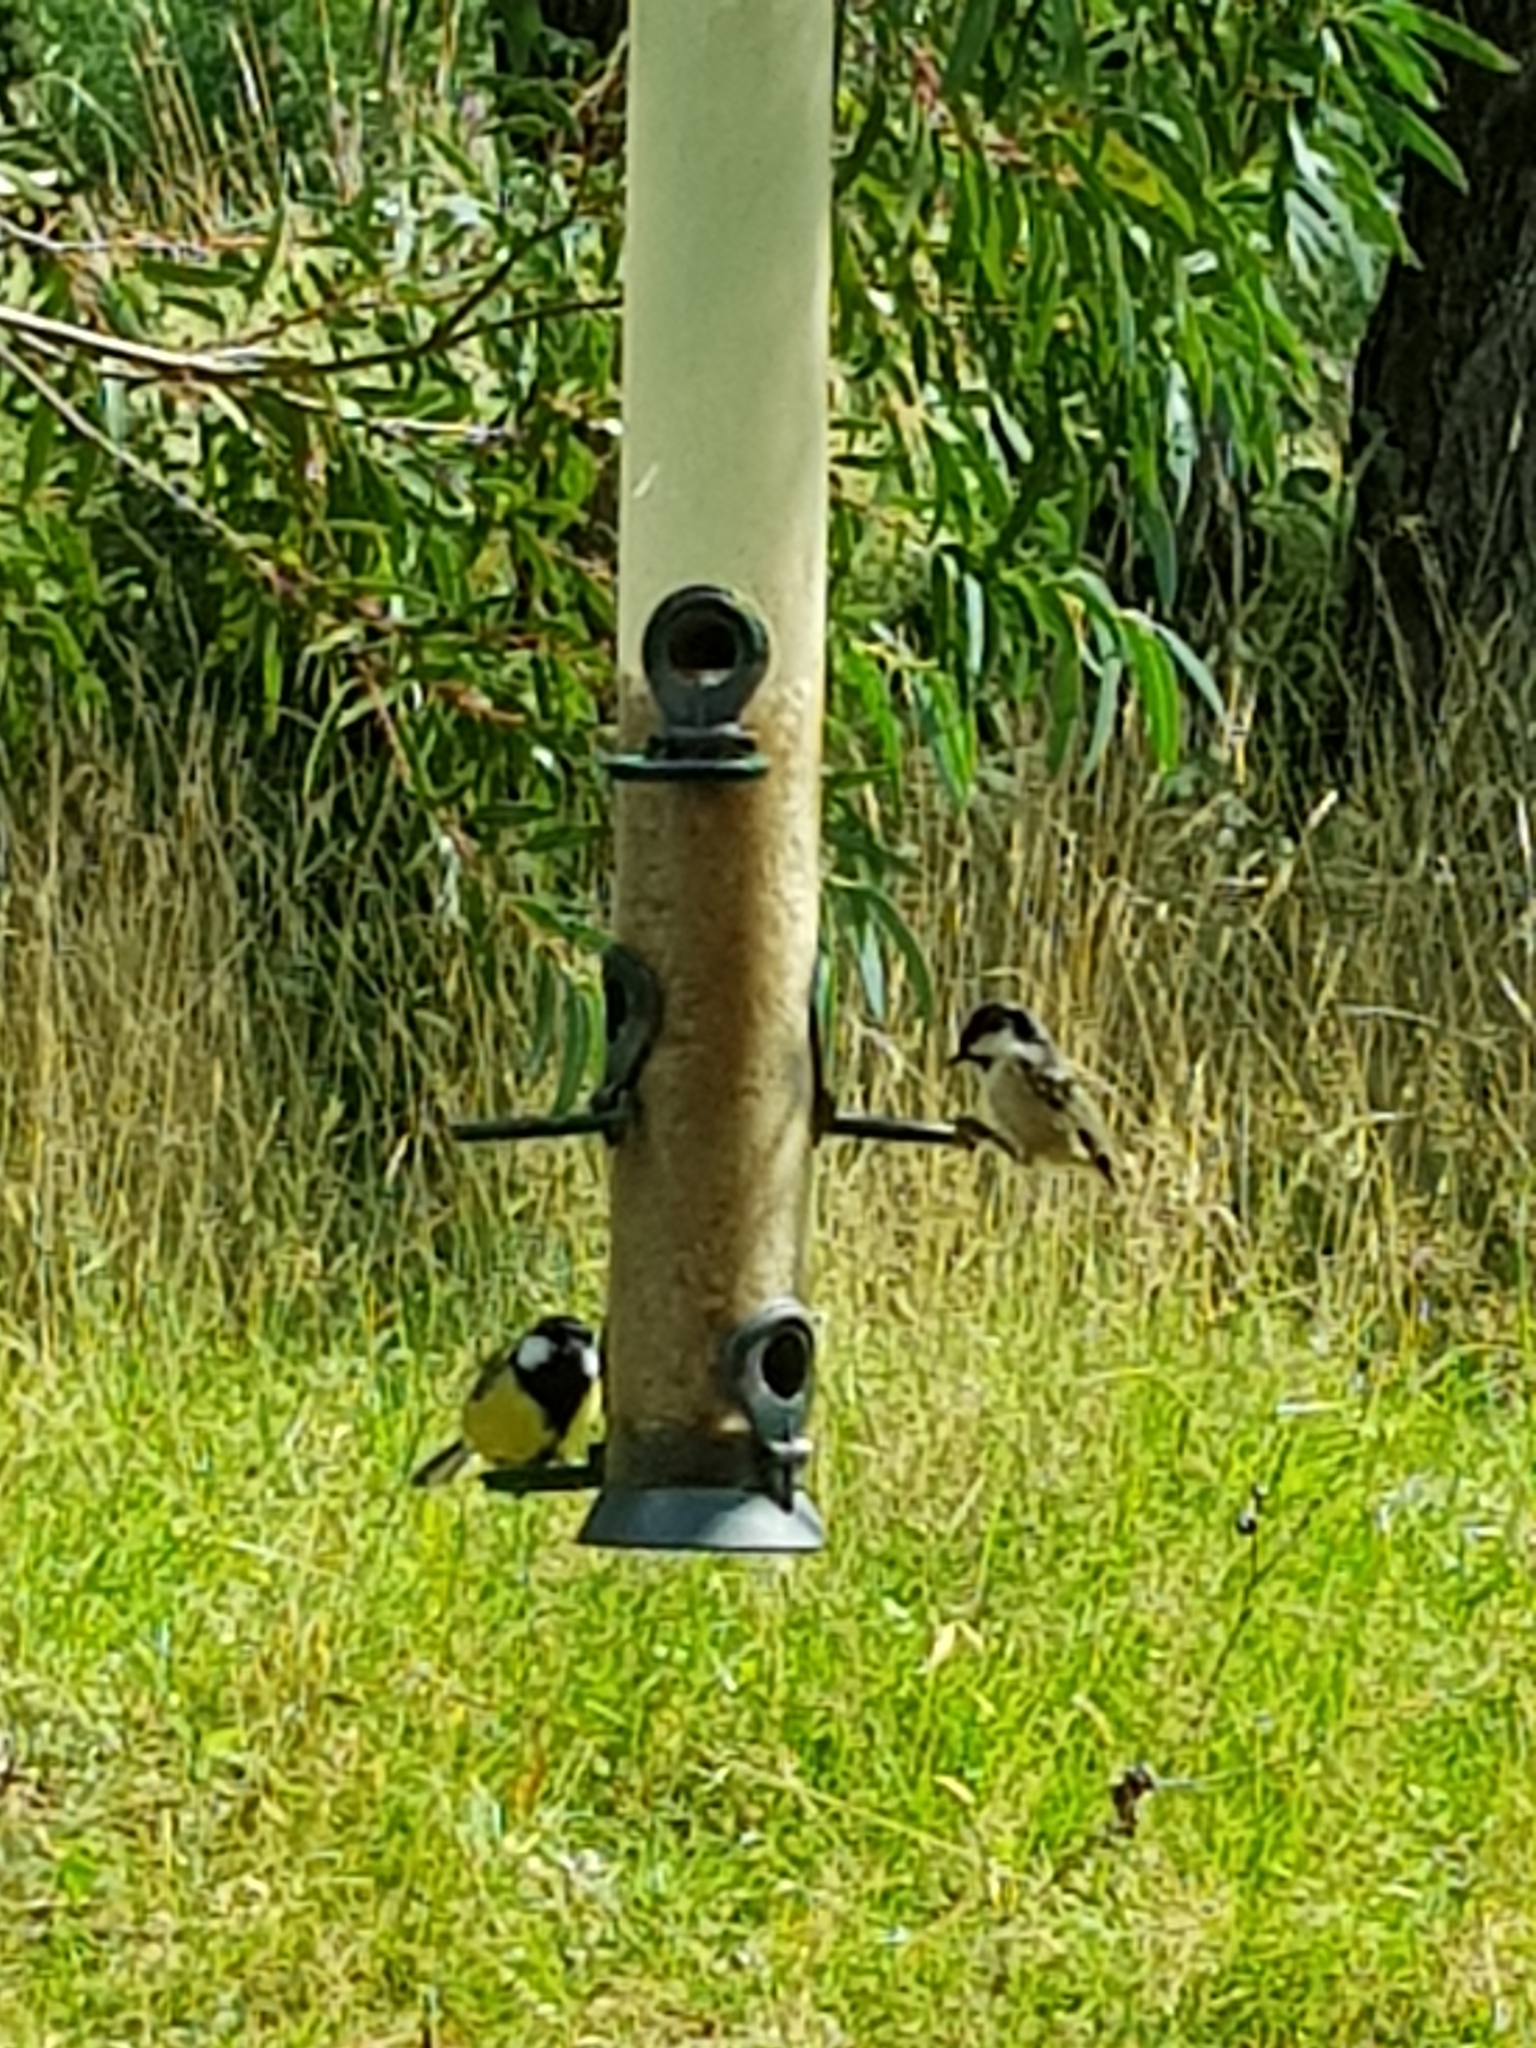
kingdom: Animalia
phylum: Chordata
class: Aves
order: Passeriformes
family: Paridae
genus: Parus
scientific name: Parus major
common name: Great tit
